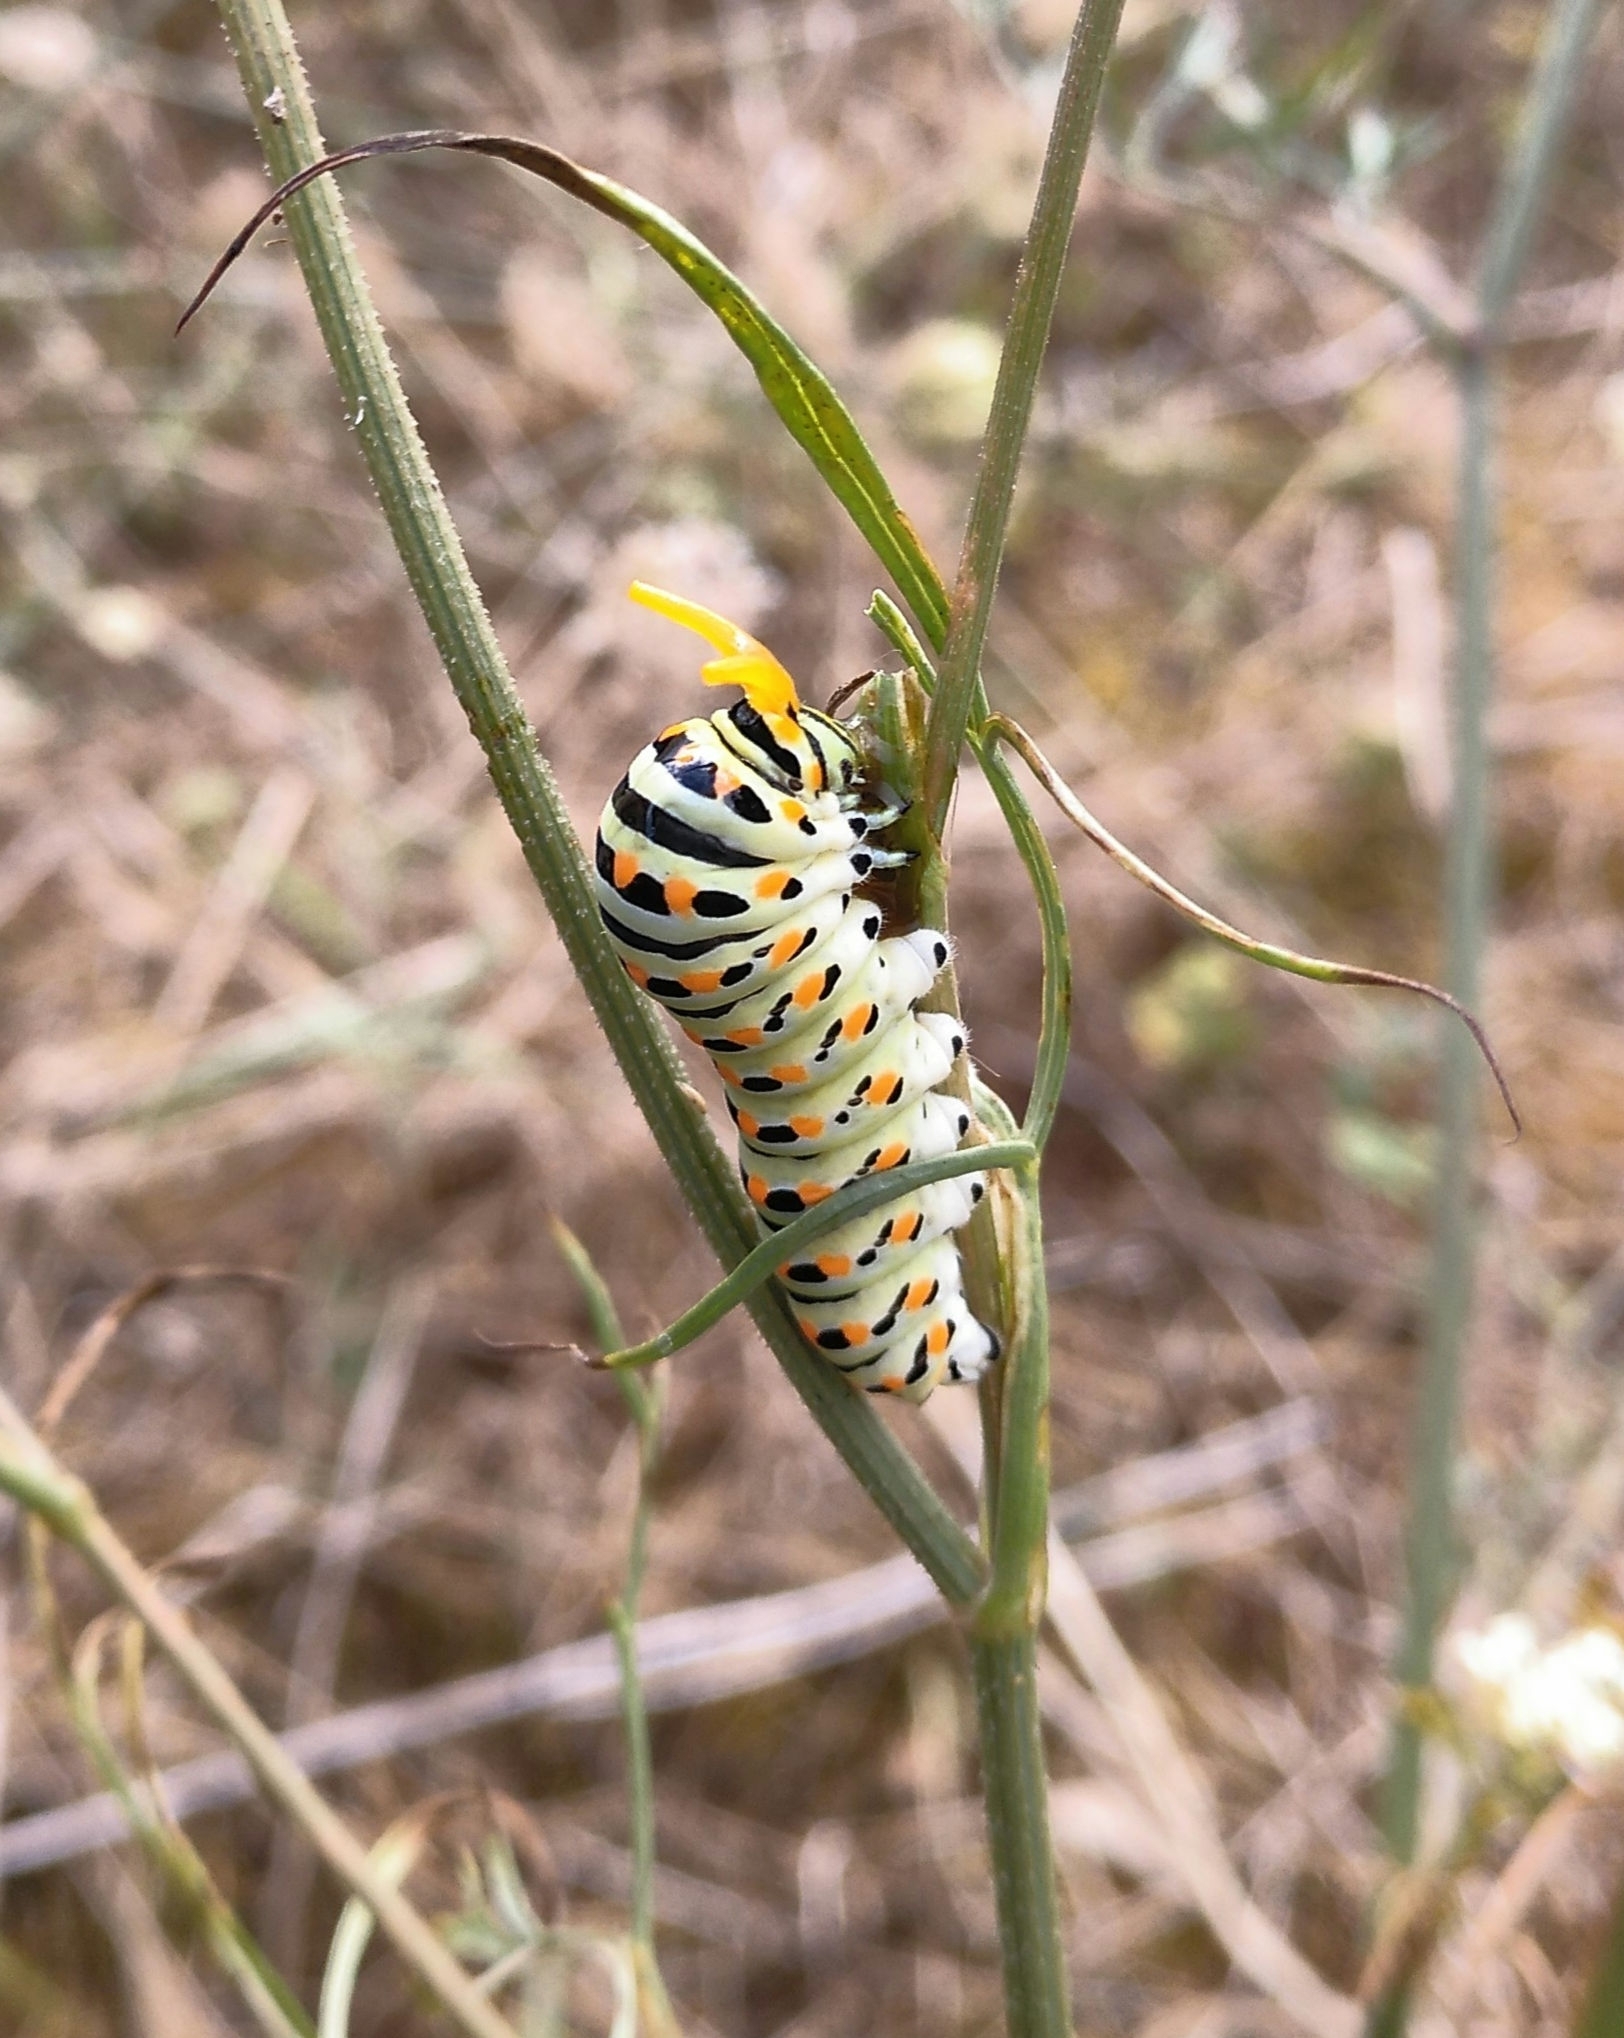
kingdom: Animalia
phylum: Arthropoda
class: Insecta
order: Lepidoptera
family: Papilionidae
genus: Papilio
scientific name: Papilio machaon
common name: Swallowtail
